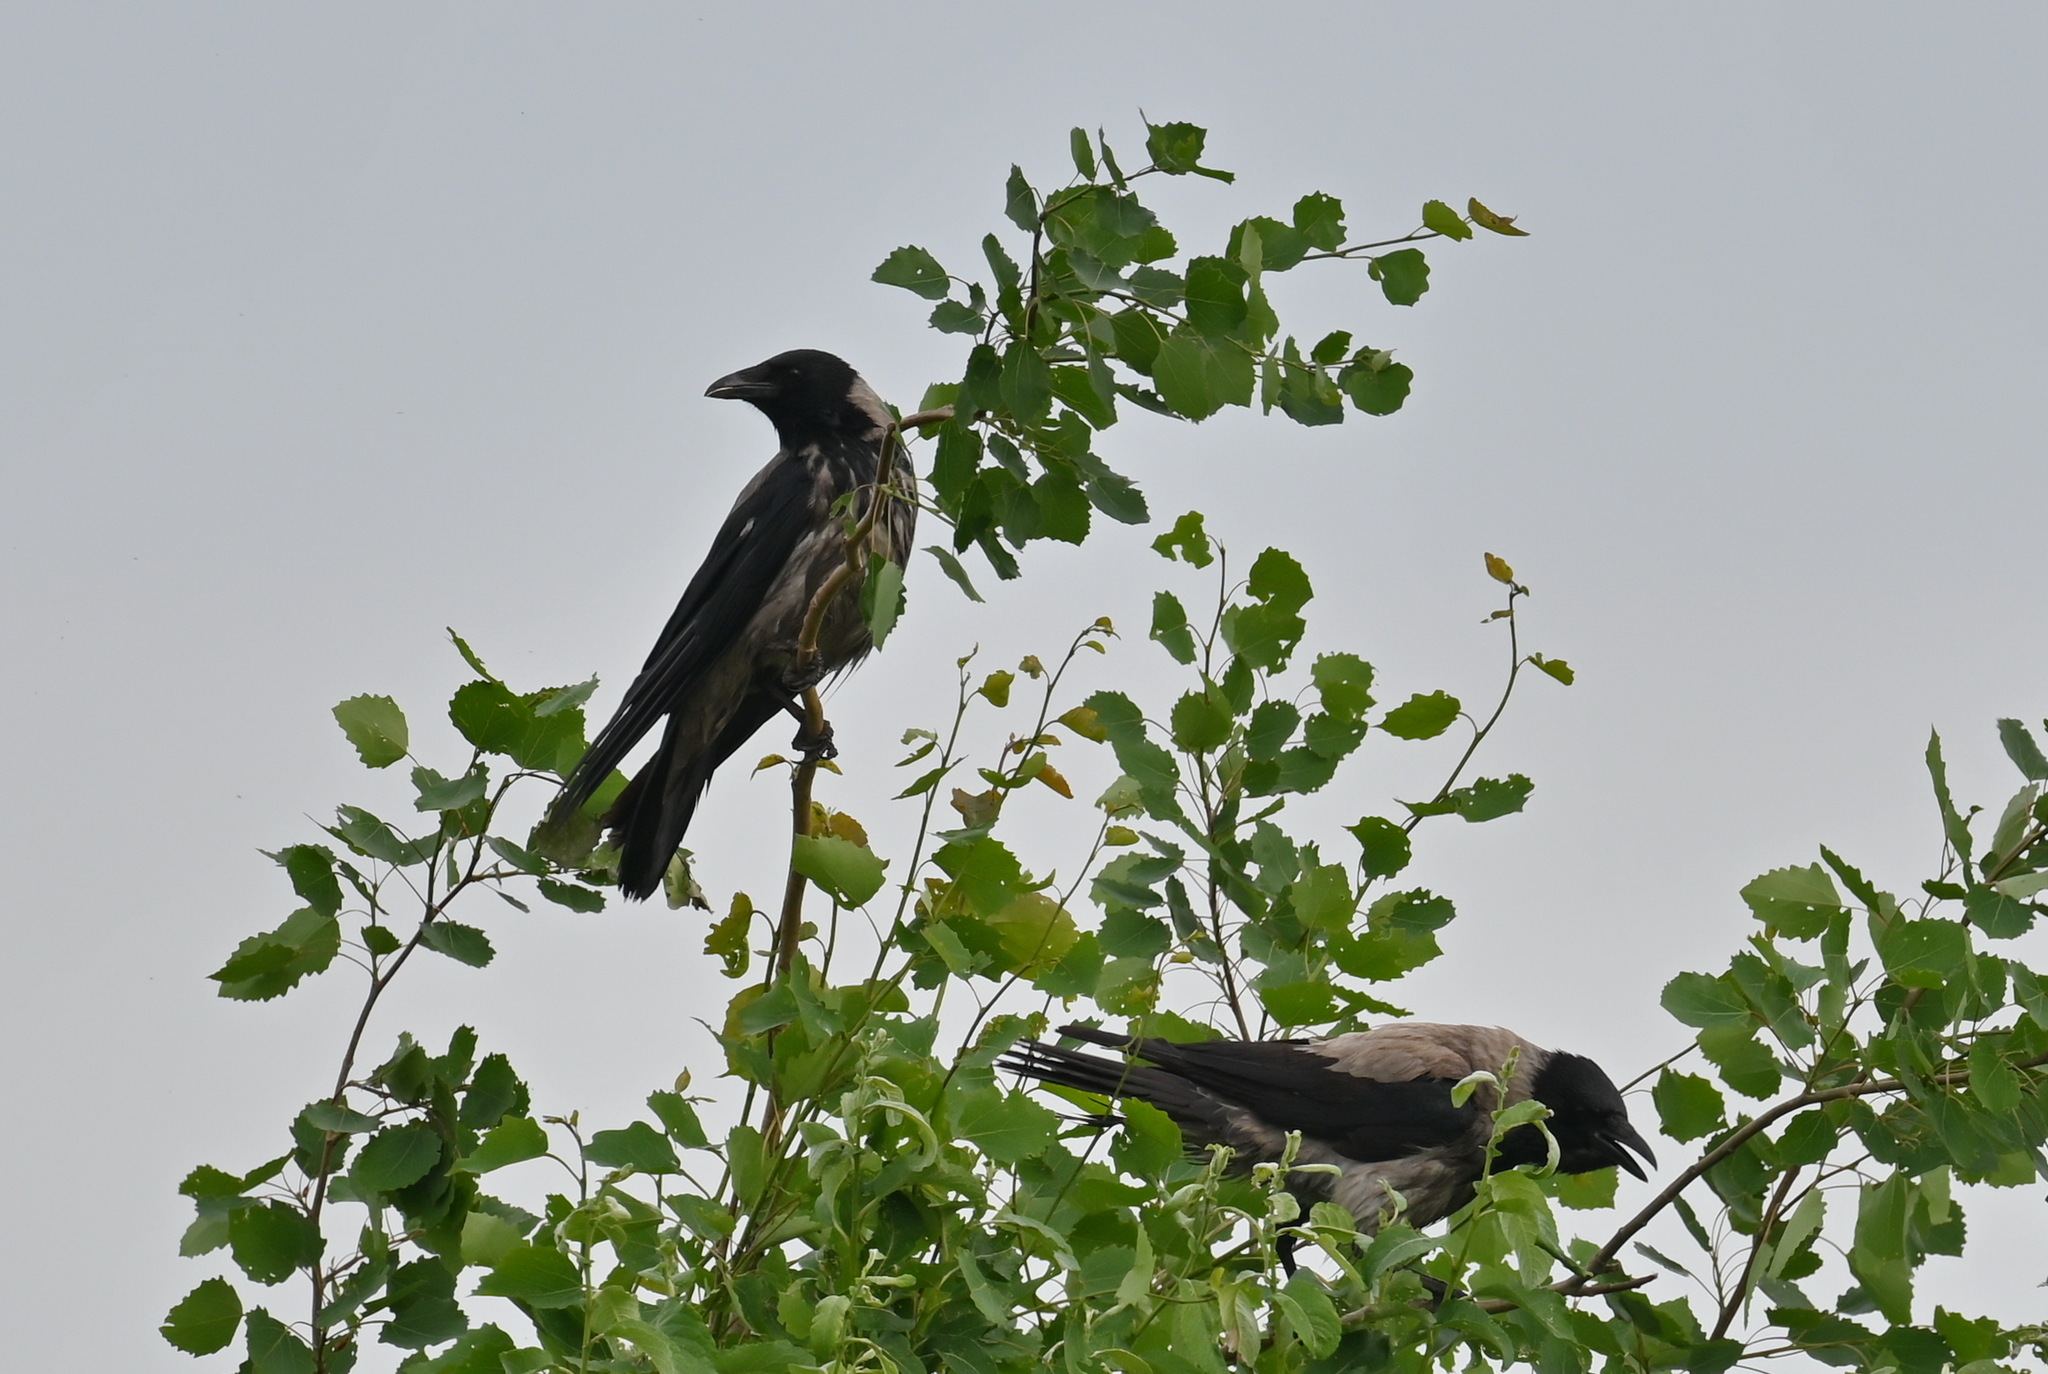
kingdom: Animalia
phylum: Chordata
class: Aves
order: Passeriformes
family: Corvidae
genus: Corvus
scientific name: Corvus cornix
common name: Hooded crow
